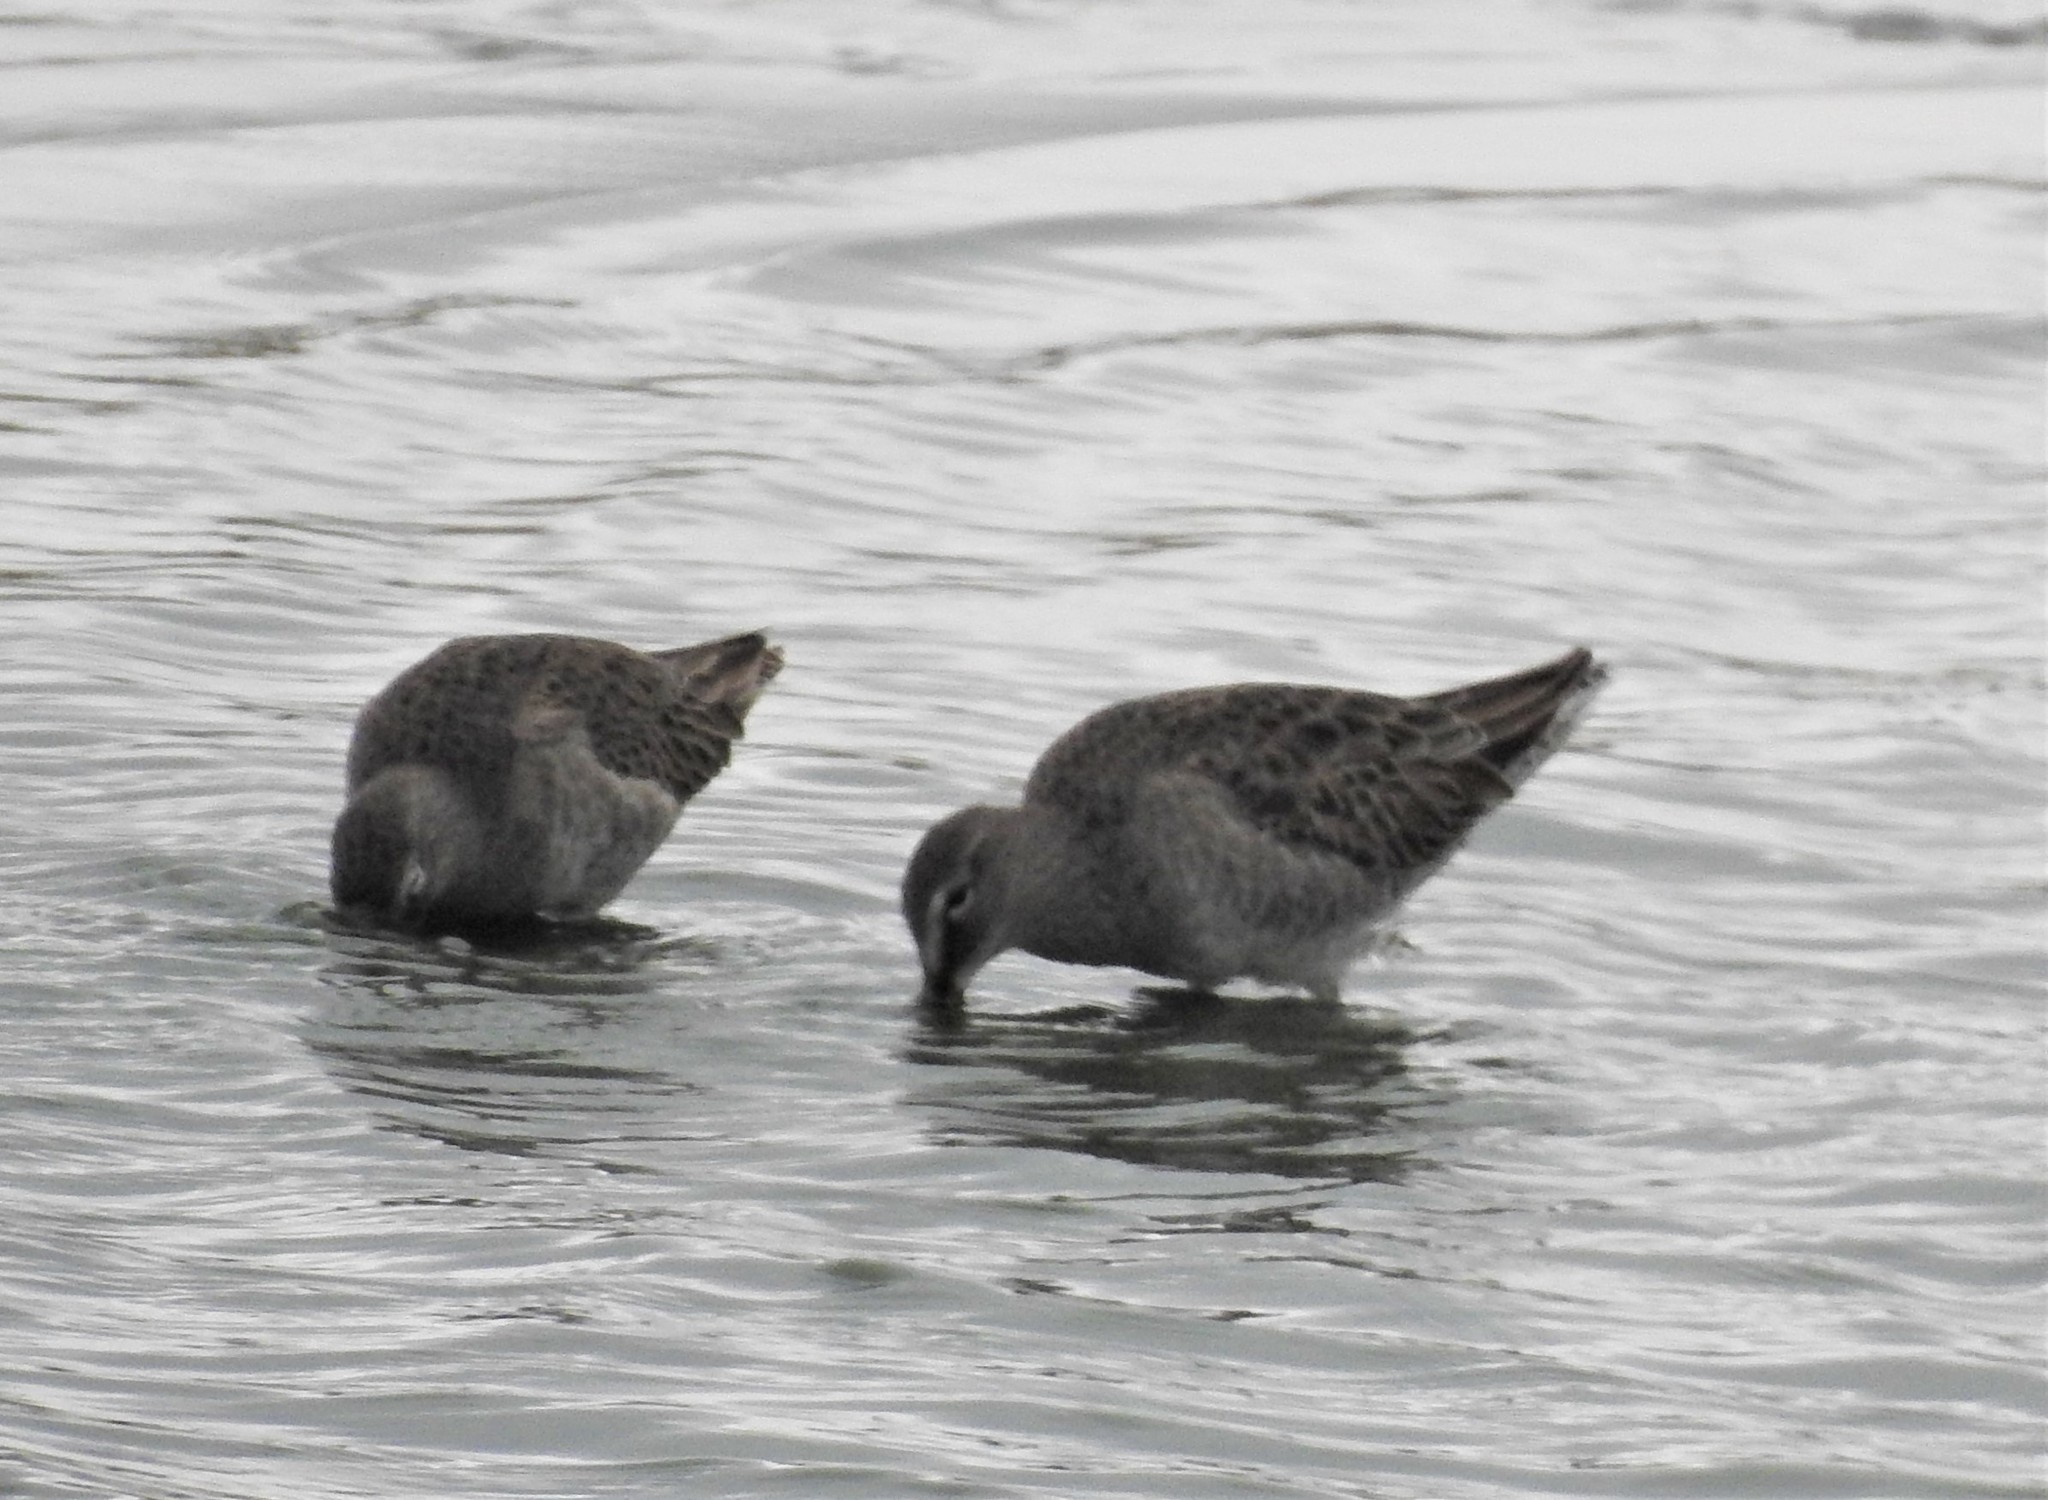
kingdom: Animalia
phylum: Chordata
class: Aves
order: Charadriiformes
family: Scolopacidae
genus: Limnodromus
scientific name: Limnodromus scolopaceus
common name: Long-billed dowitcher
